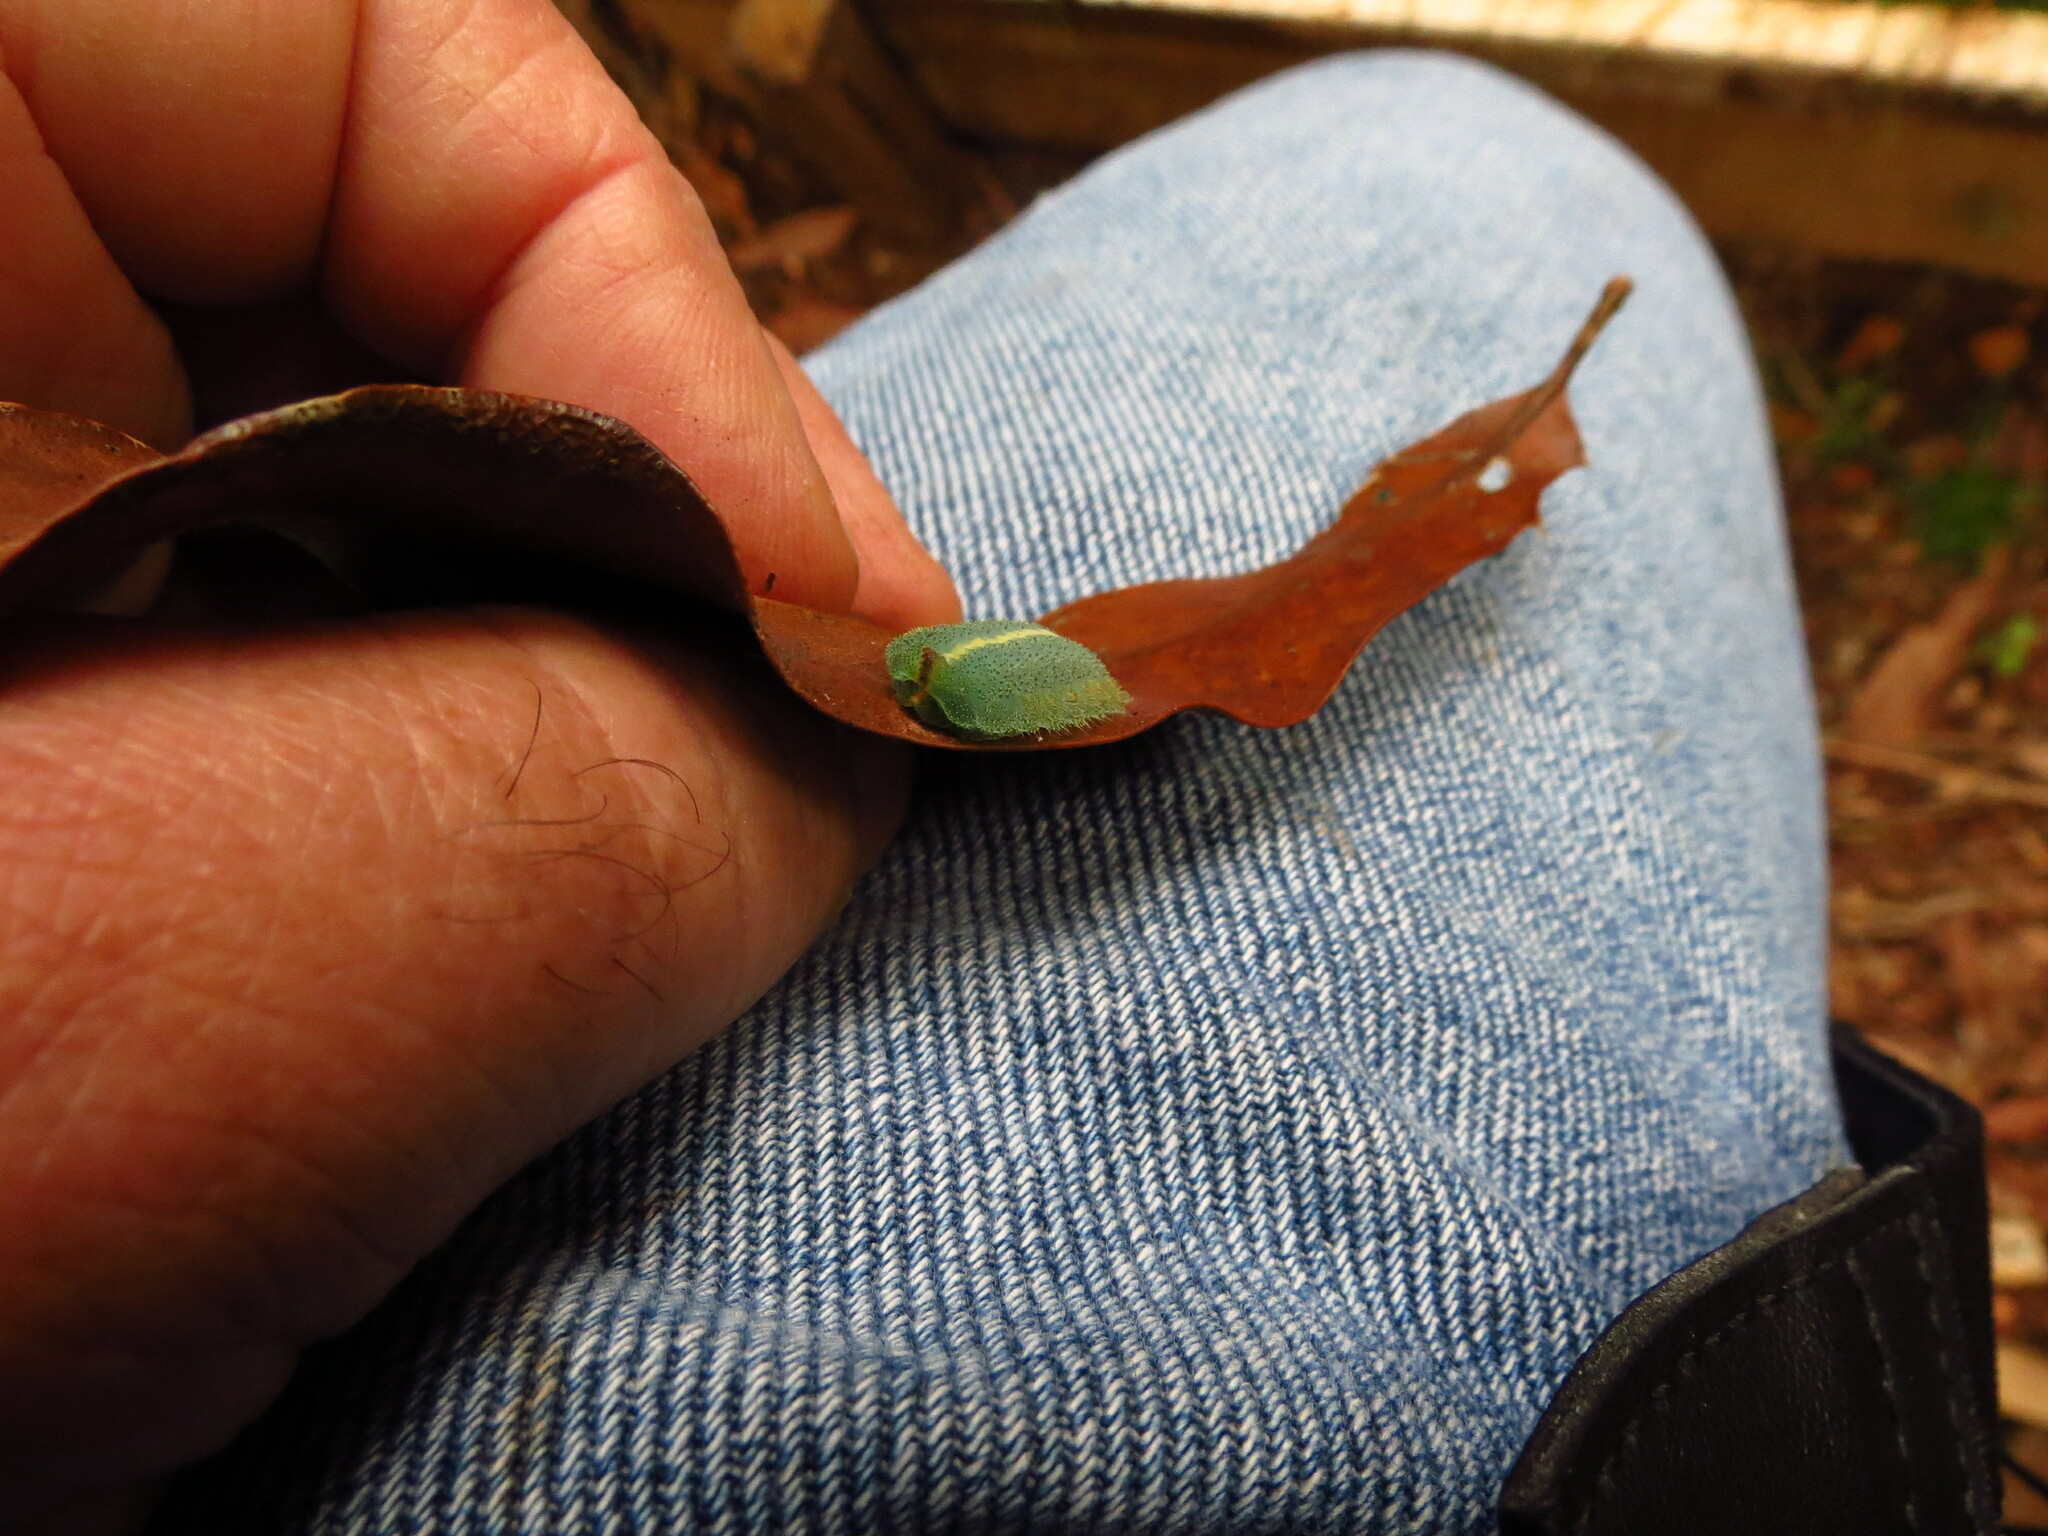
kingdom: Animalia
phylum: Arthropoda
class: Insecta
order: Lepidoptera
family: Limacodidae
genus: Mecytha
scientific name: Mecytha fasciata
